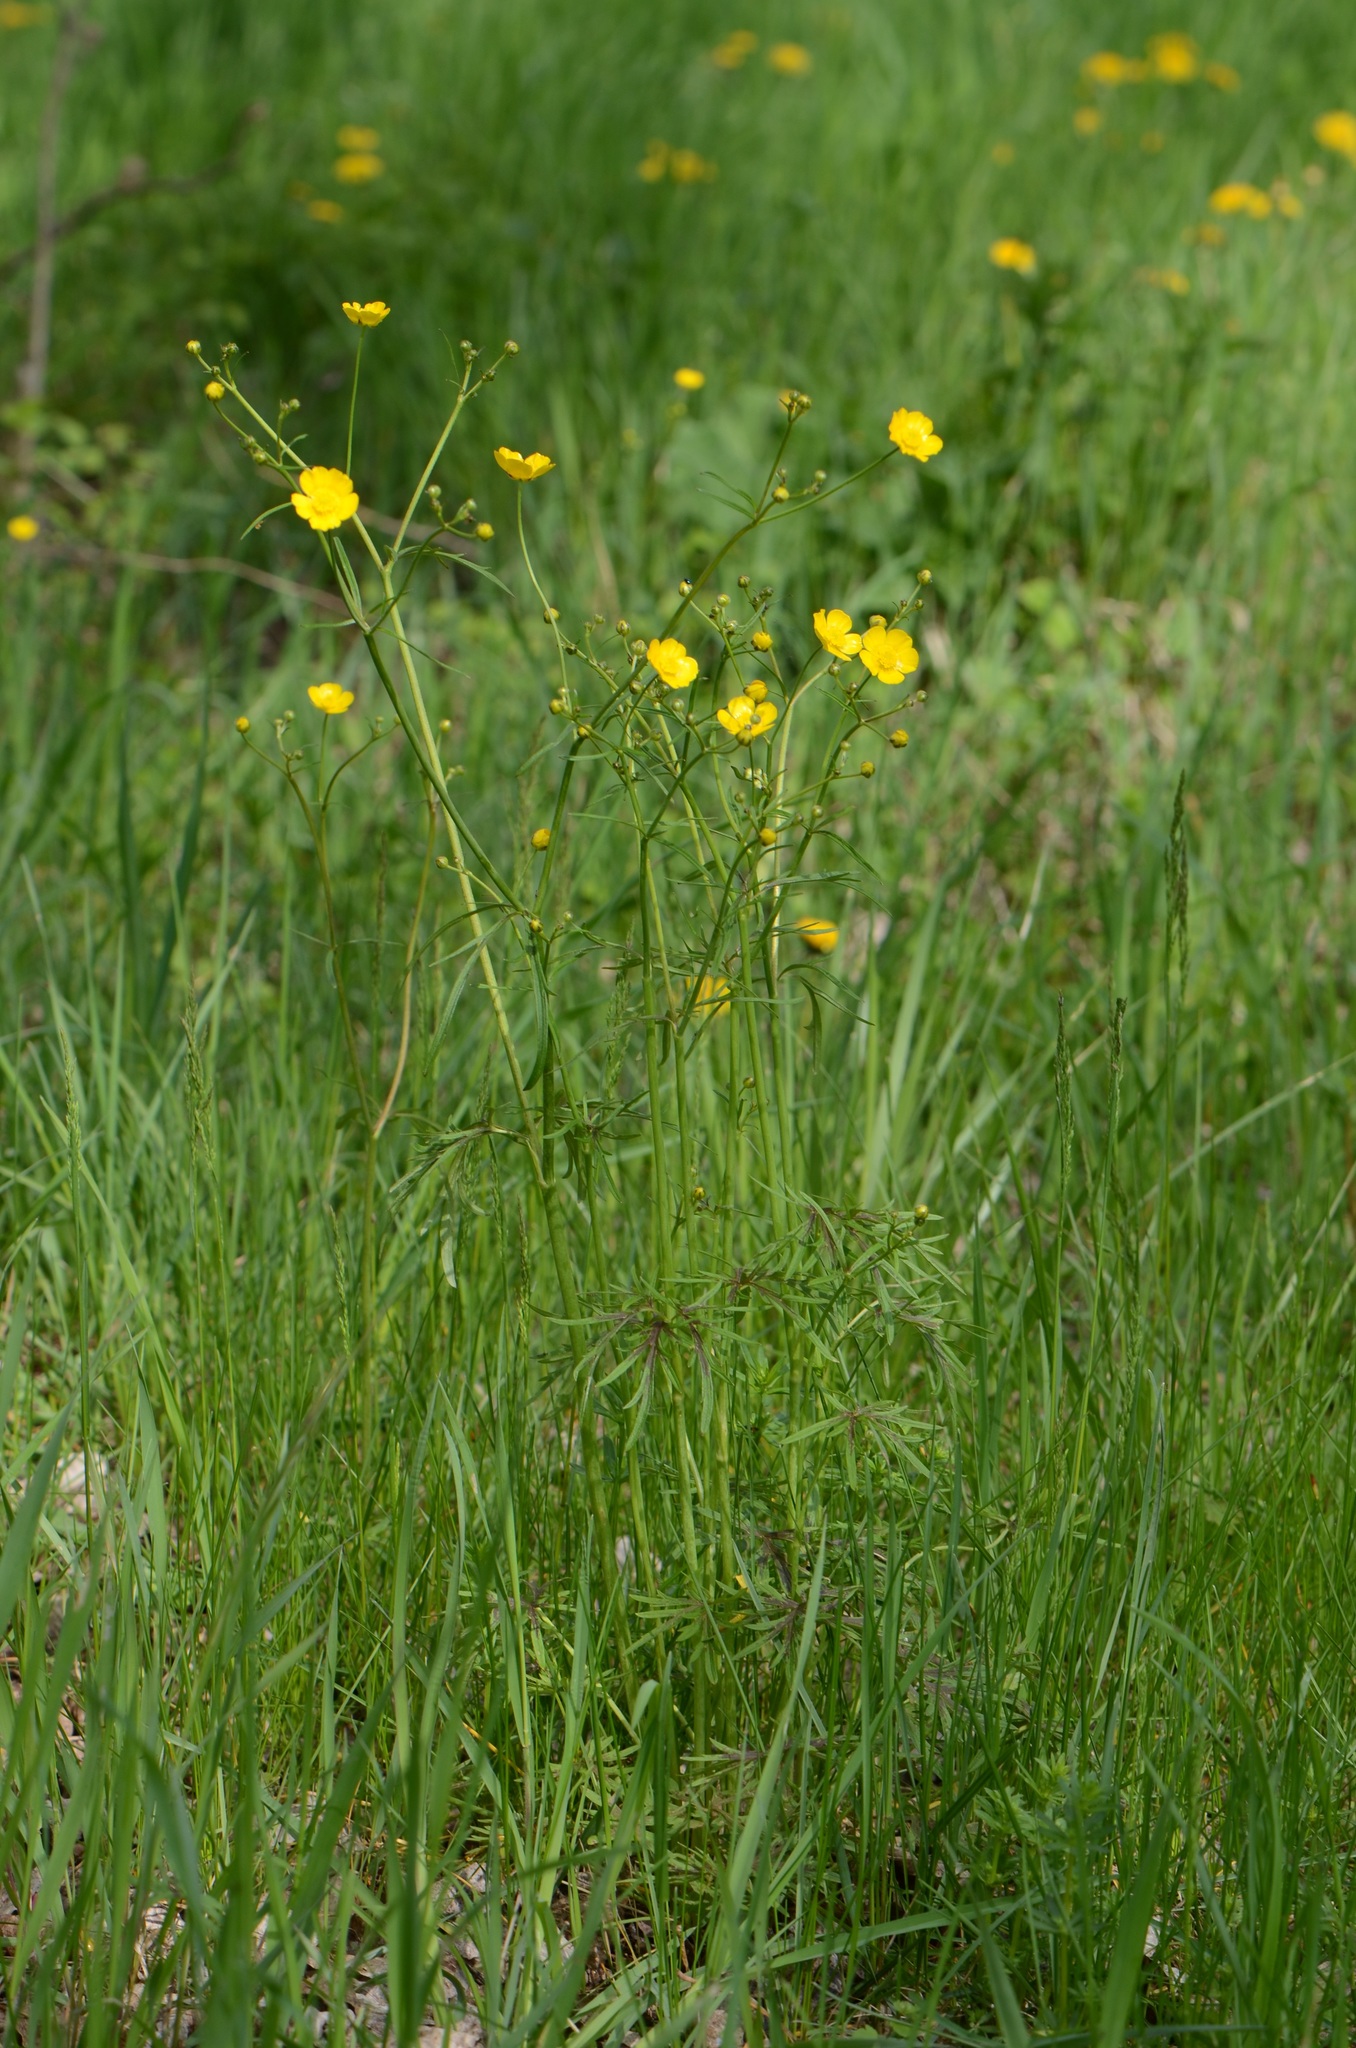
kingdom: Plantae
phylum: Tracheophyta
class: Magnoliopsida
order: Ranunculales
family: Ranunculaceae
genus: Ranunculus
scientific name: Ranunculus acris
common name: Meadow buttercup
